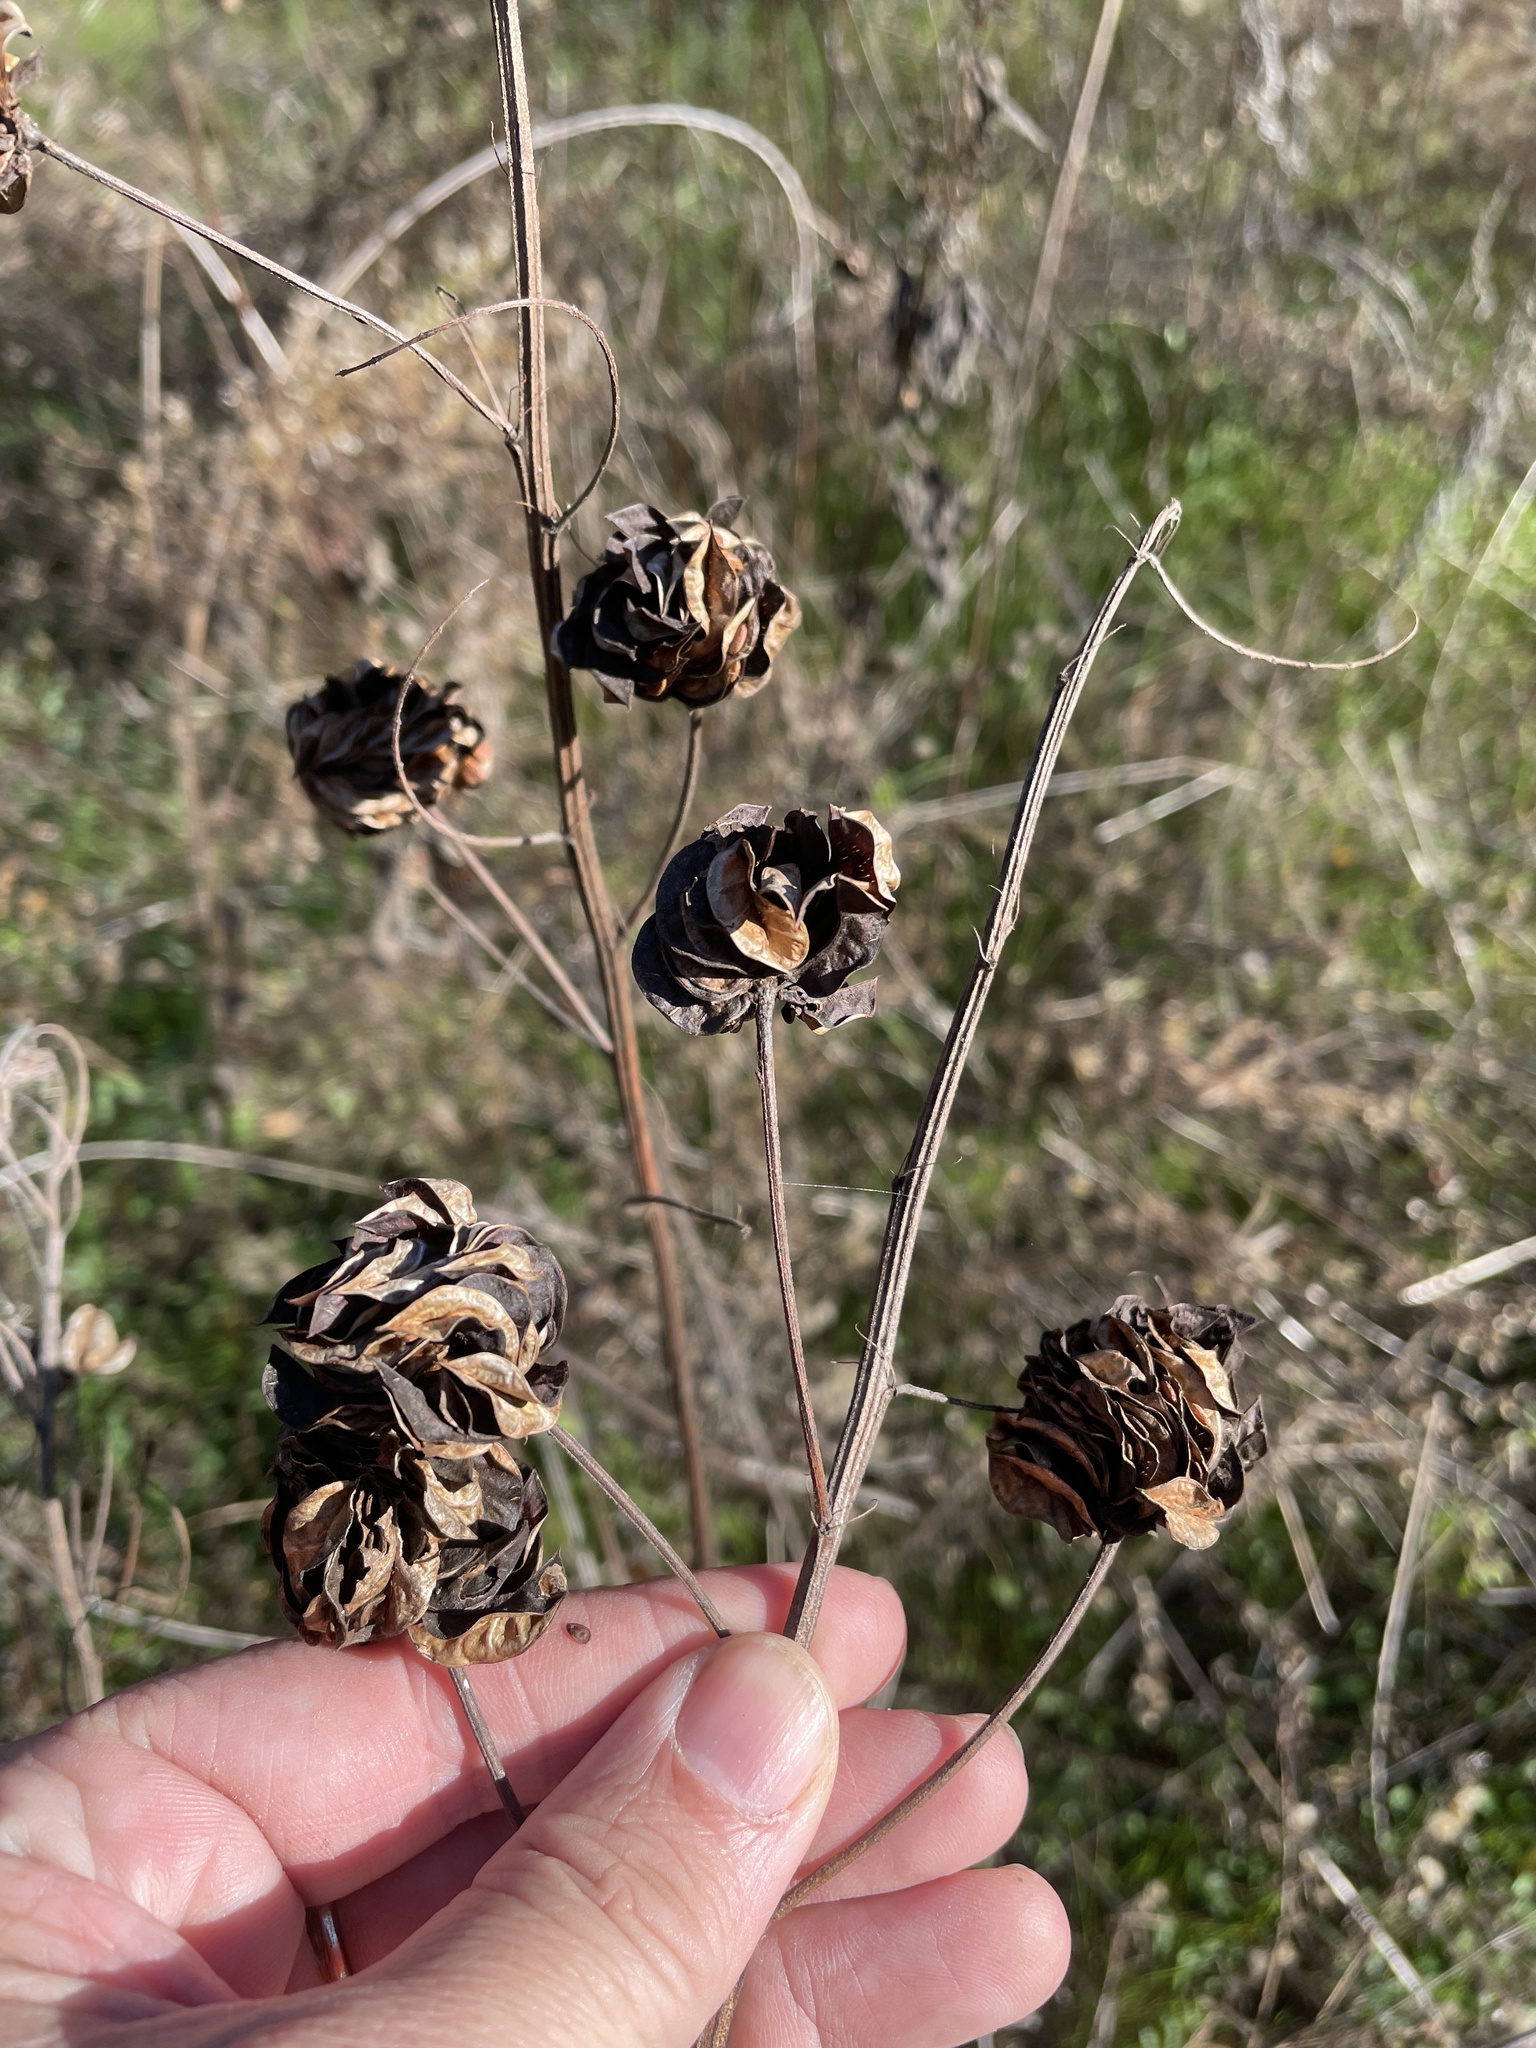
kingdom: Plantae
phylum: Tracheophyta
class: Magnoliopsida
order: Fabales
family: Fabaceae
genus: Desmanthus
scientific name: Desmanthus illinoensis
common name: Illinois bundle-flower
